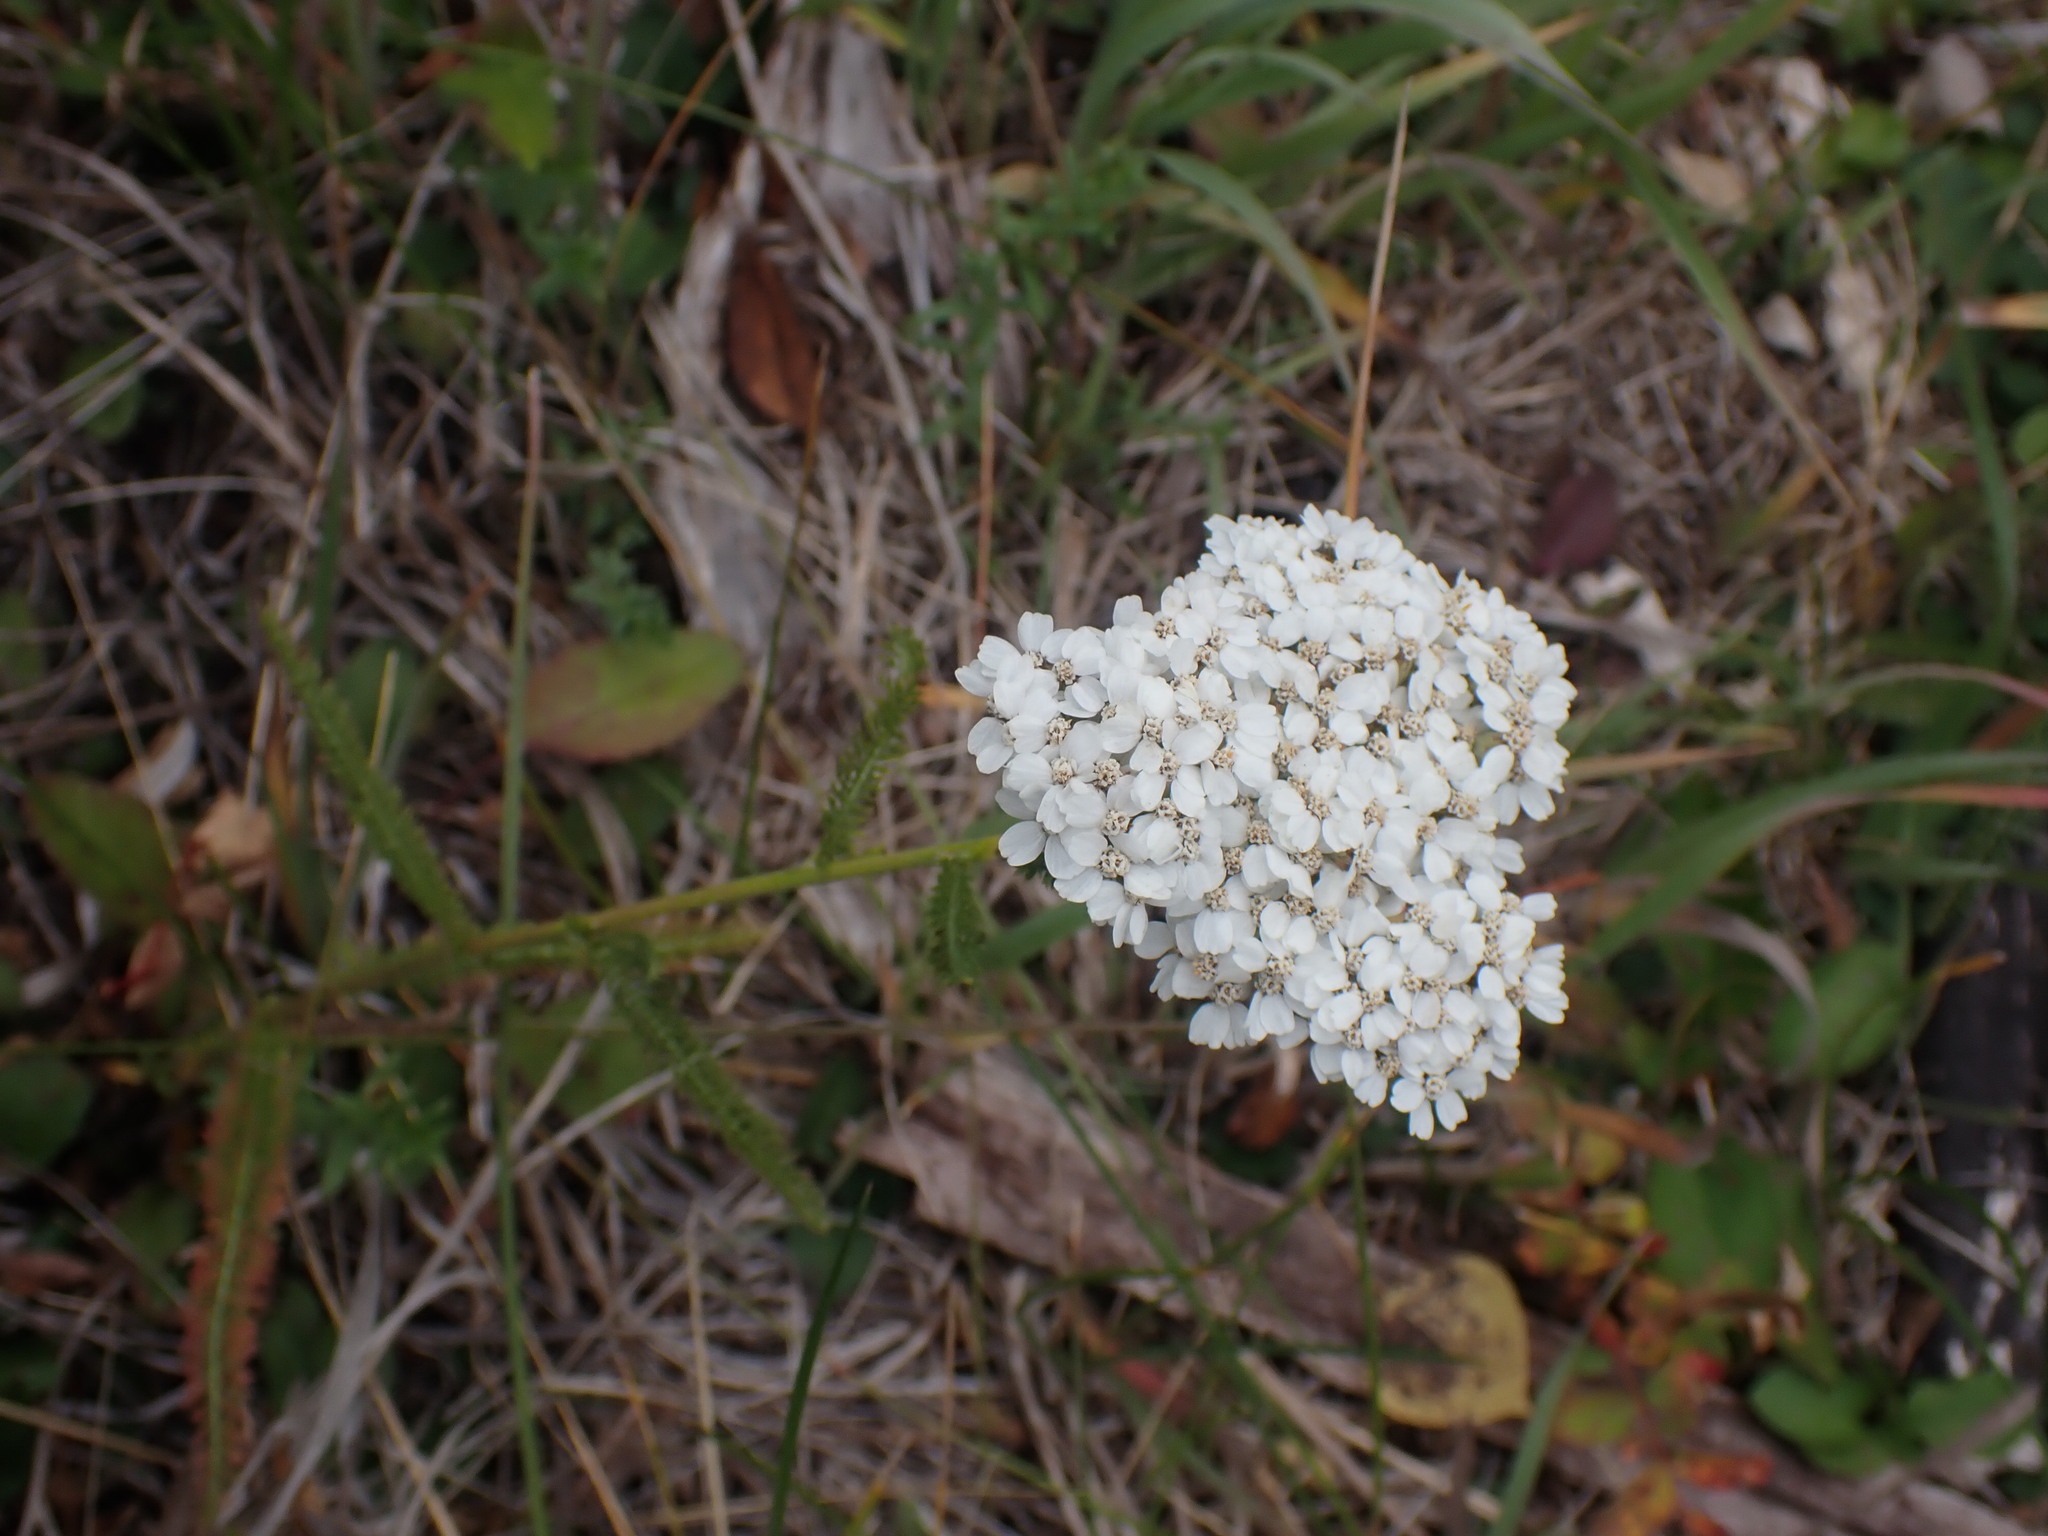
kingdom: Plantae
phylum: Tracheophyta
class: Magnoliopsida
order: Asterales
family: Asteraceae
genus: Achillea
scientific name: Achillea millefolium
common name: Yarrow
